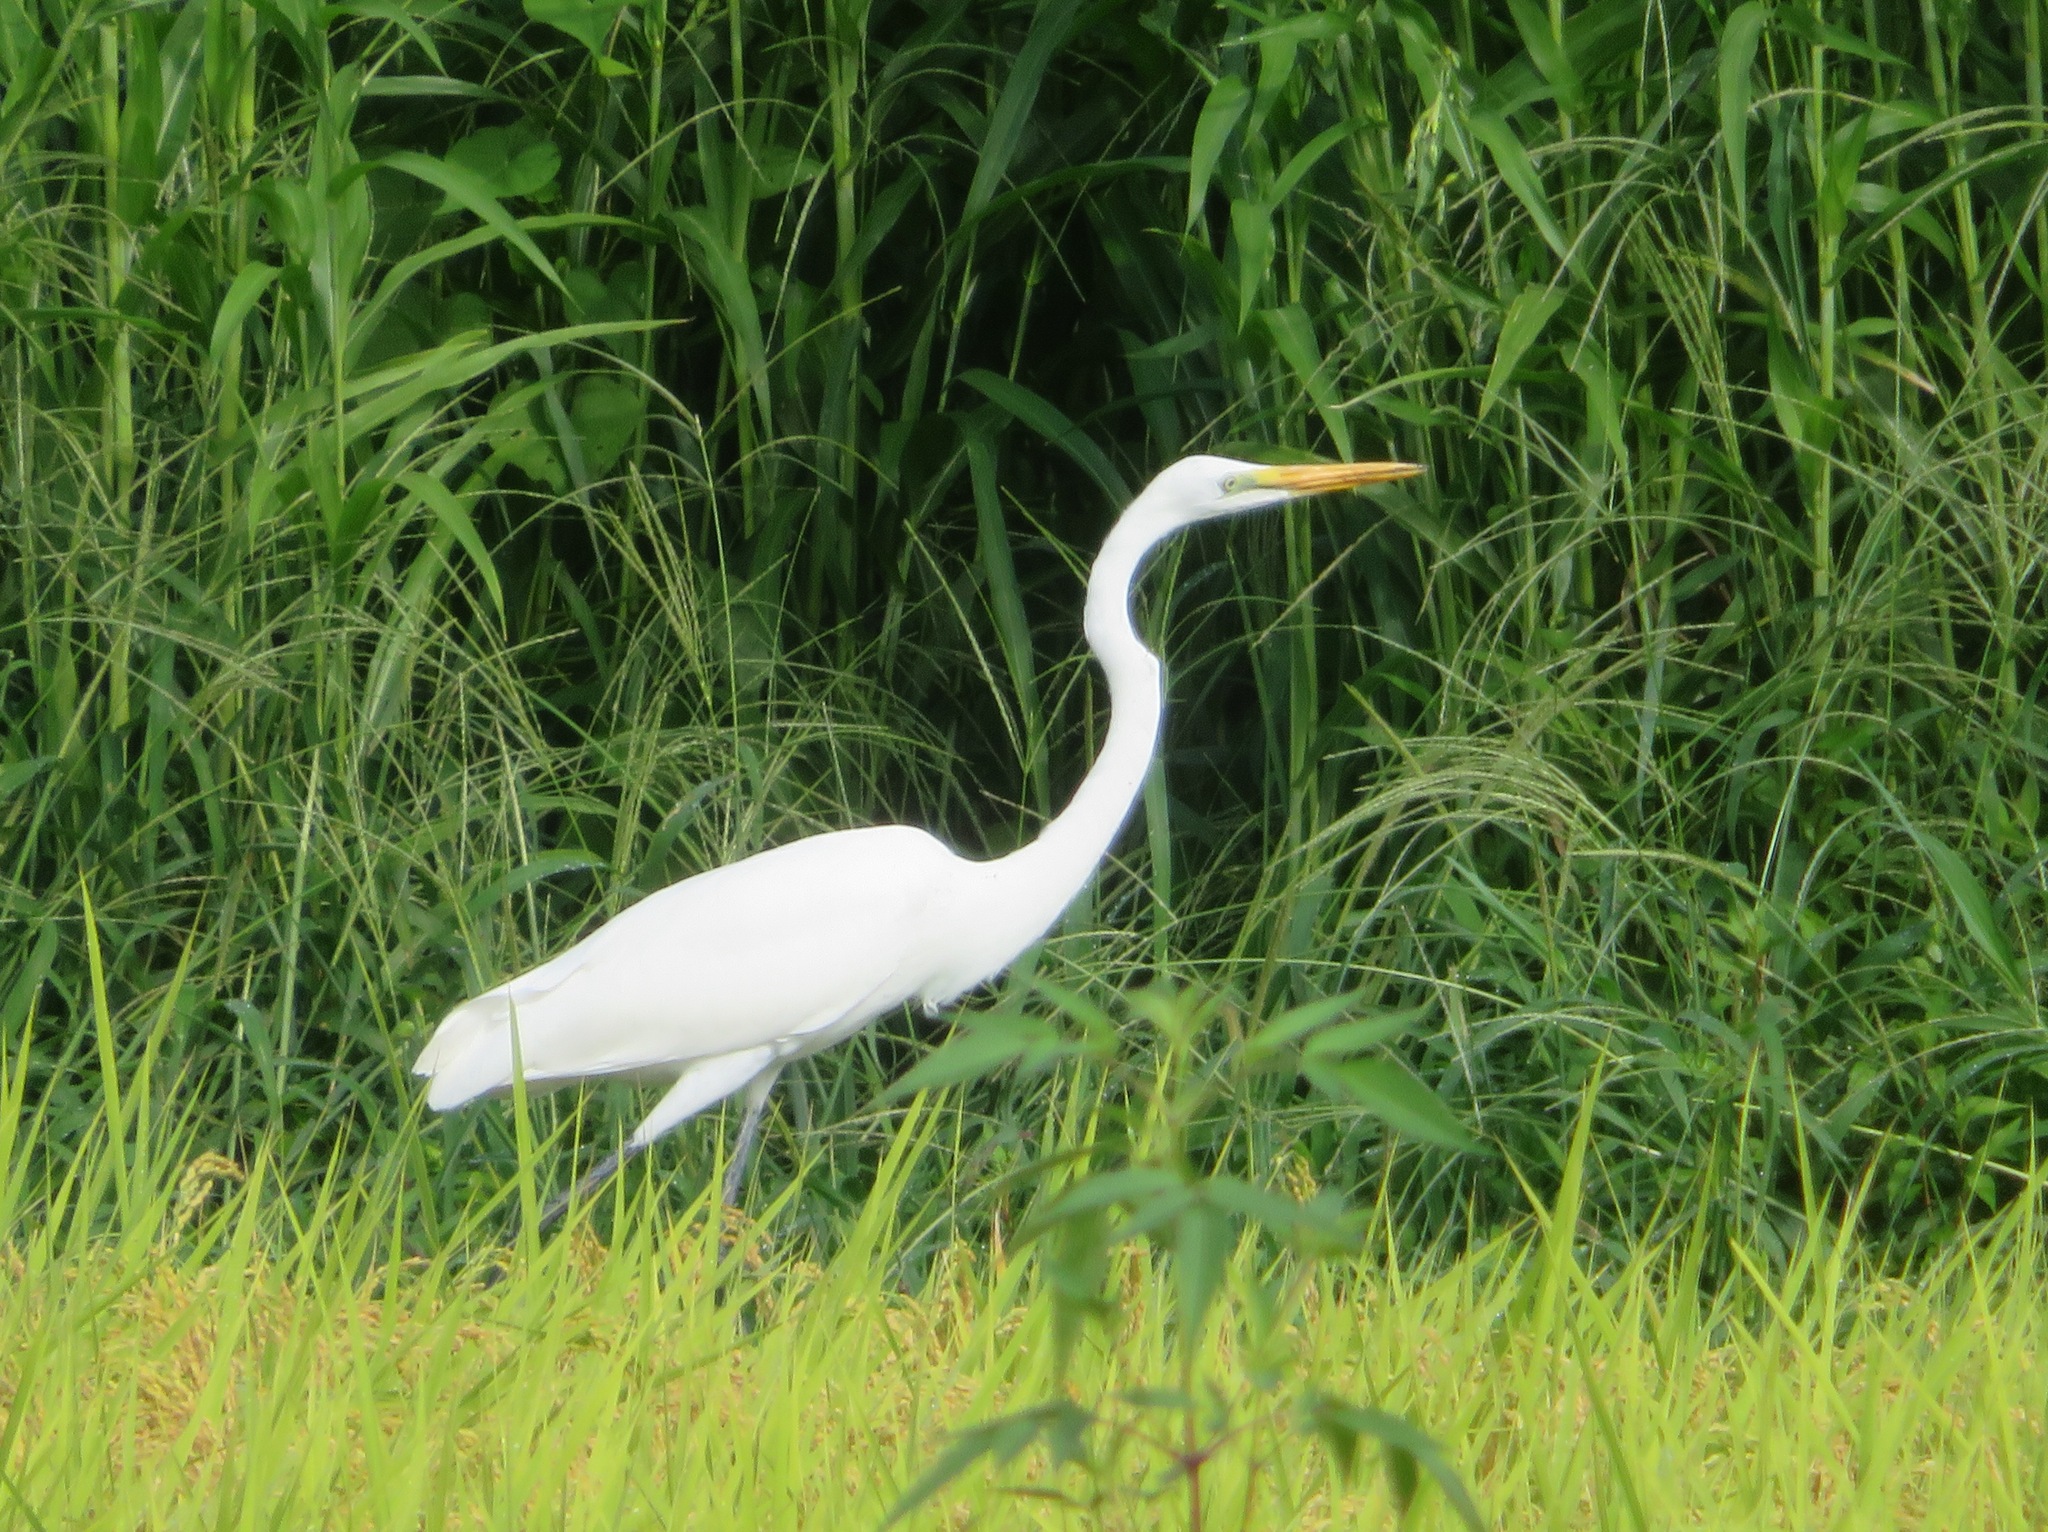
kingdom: Animalia
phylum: Chordata
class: Aves
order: Pelecaniformes
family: Ardeidae
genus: Ardea
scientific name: Ardea alba
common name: Great egret
